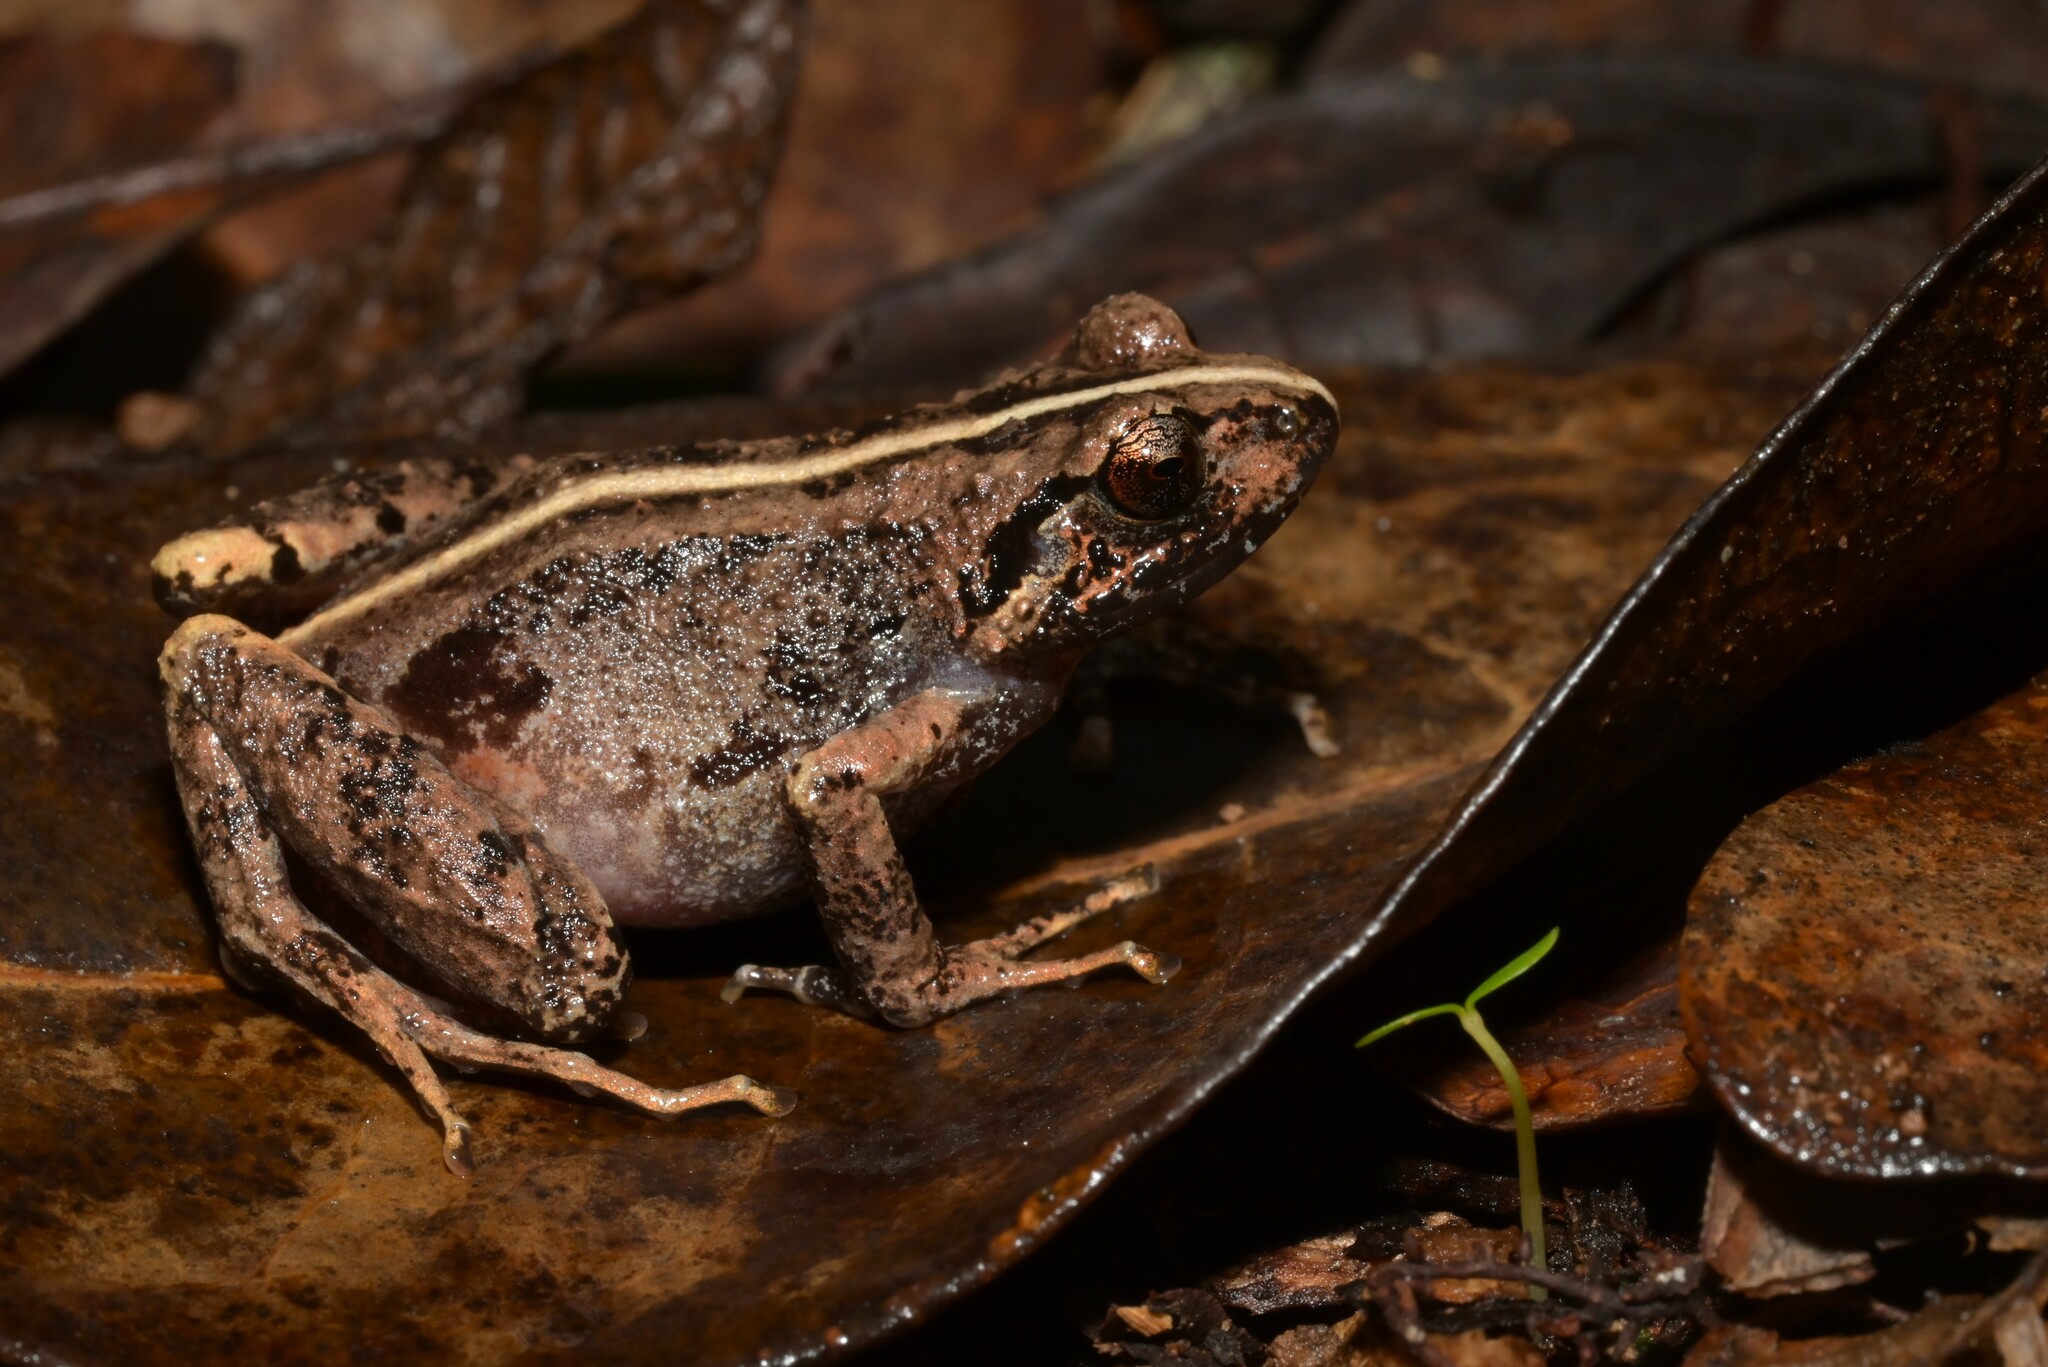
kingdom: Animalia
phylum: Chordata
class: Amphibia
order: Anura
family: Arthroleptidae
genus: Arthroleptis
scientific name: Arthroleptis reichei
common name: Poroto mountains screeching frog
